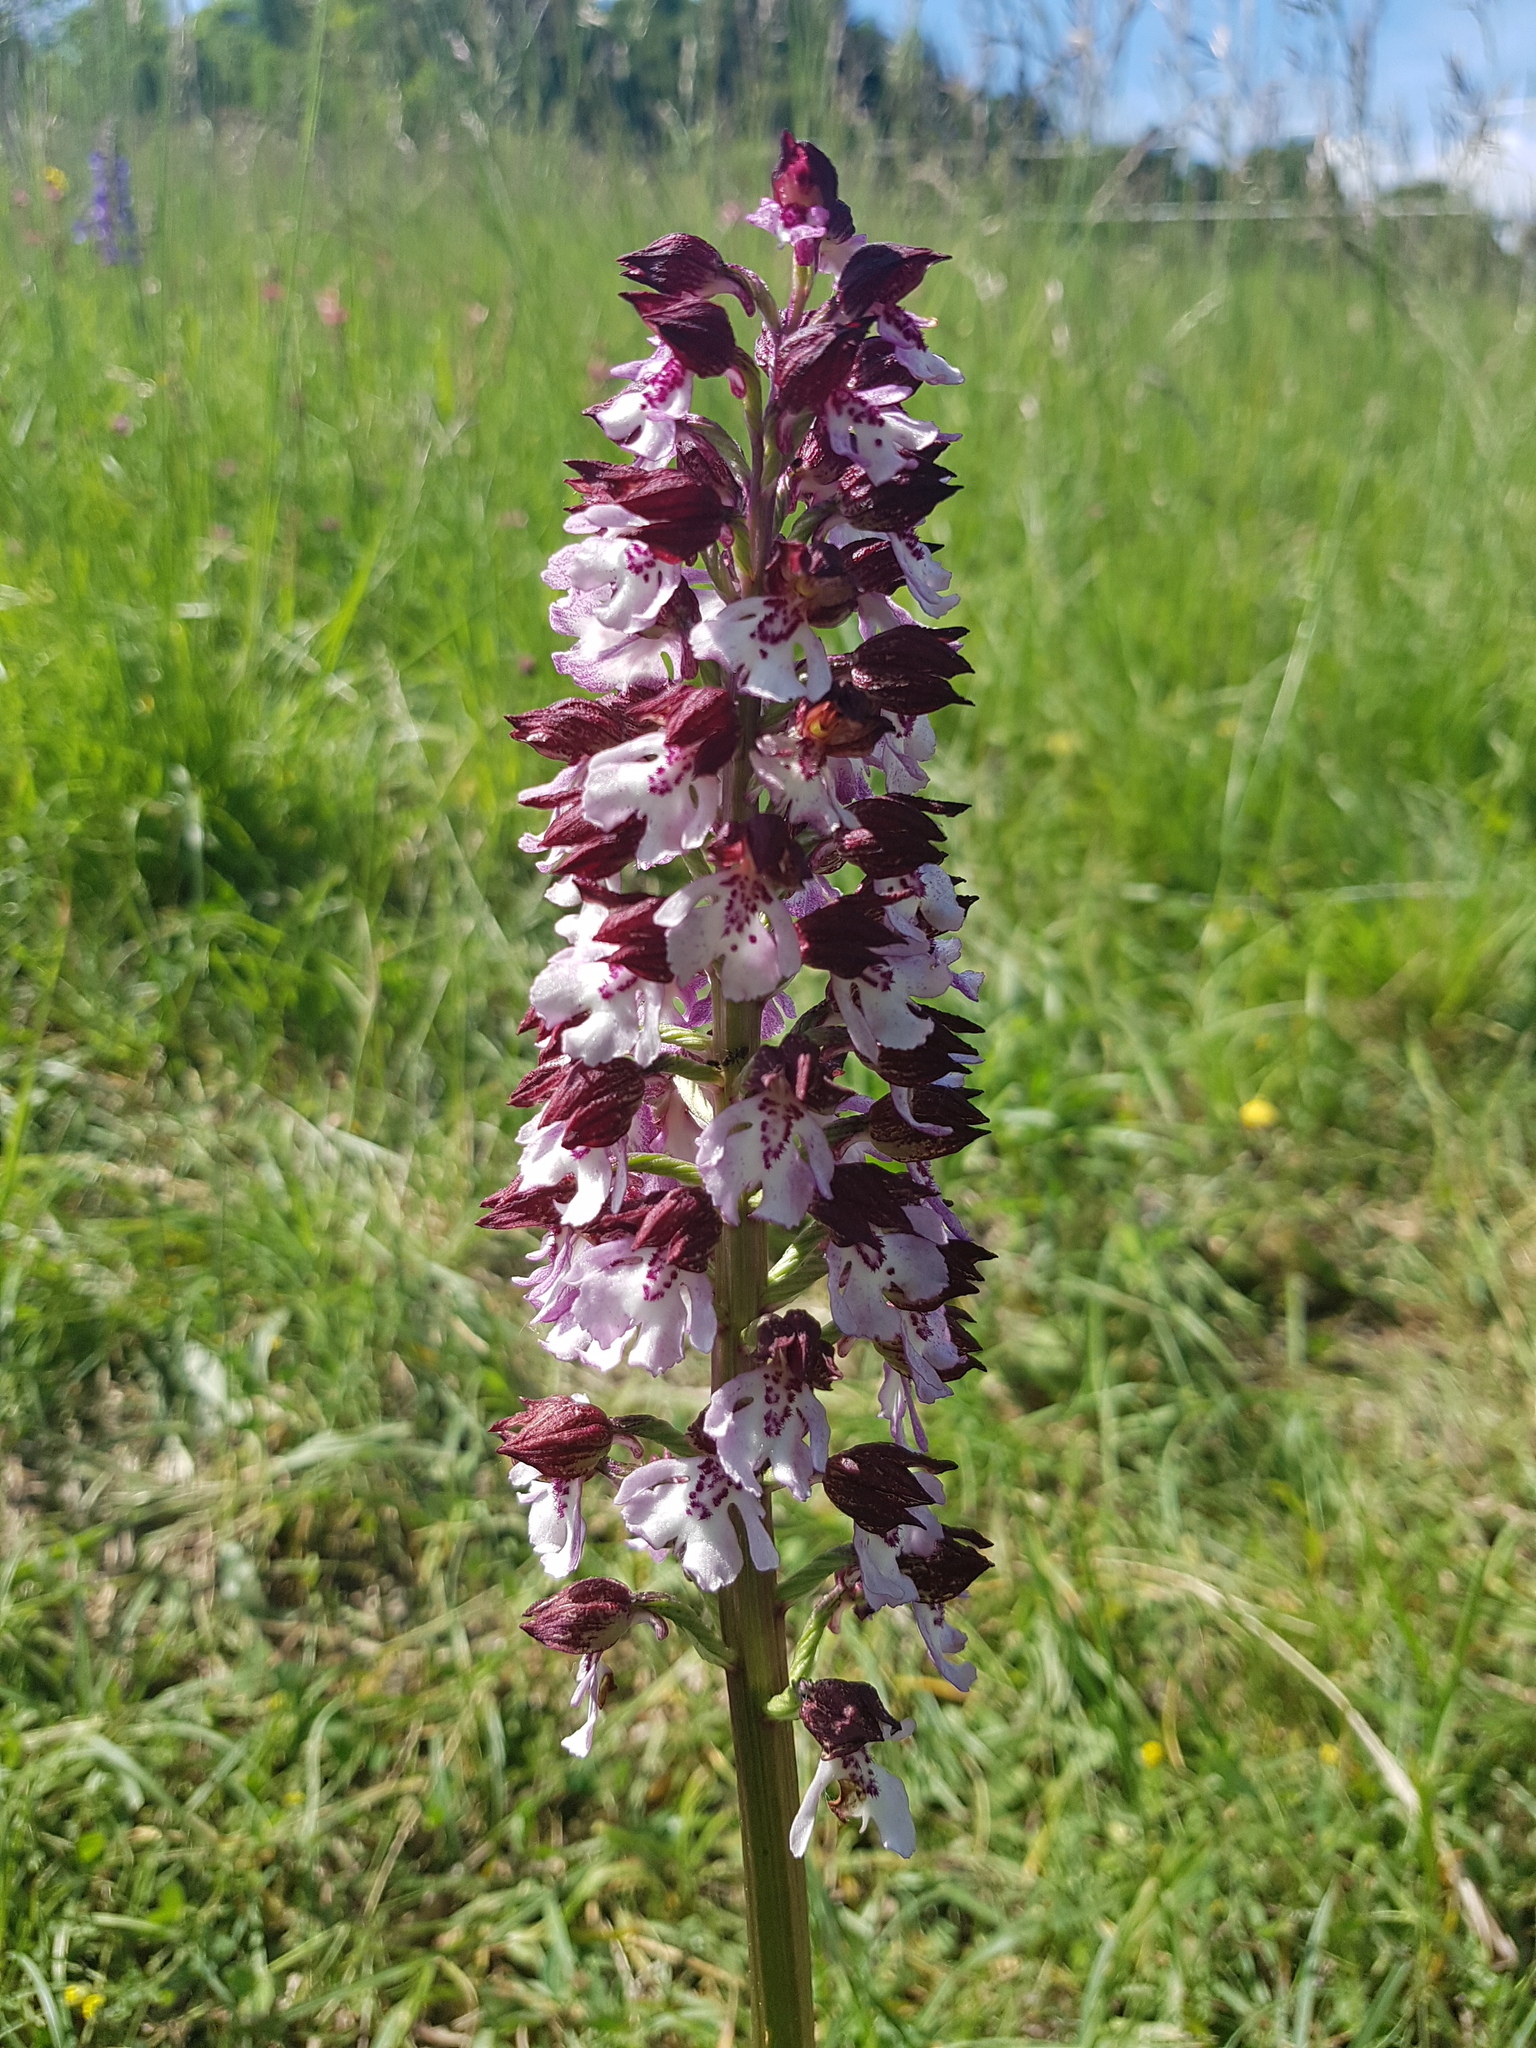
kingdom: Plantae
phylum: Tracheophyta
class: Liliopsida
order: Asparagales
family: Orchidaceae
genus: Orchis
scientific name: Orchis purpurea
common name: Lady orchid
